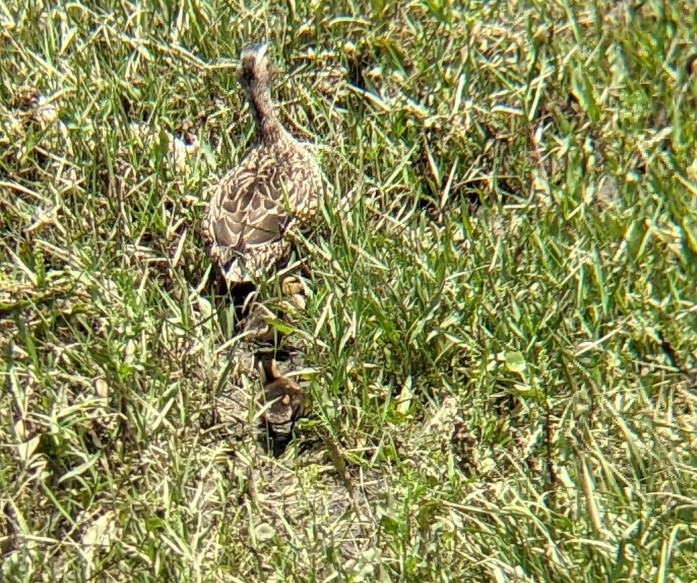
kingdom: Animalia
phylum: Chordata
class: Aves
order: Anseriformes
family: Anatidae
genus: Anas
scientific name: Anas platyrhynchos
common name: Mallard
